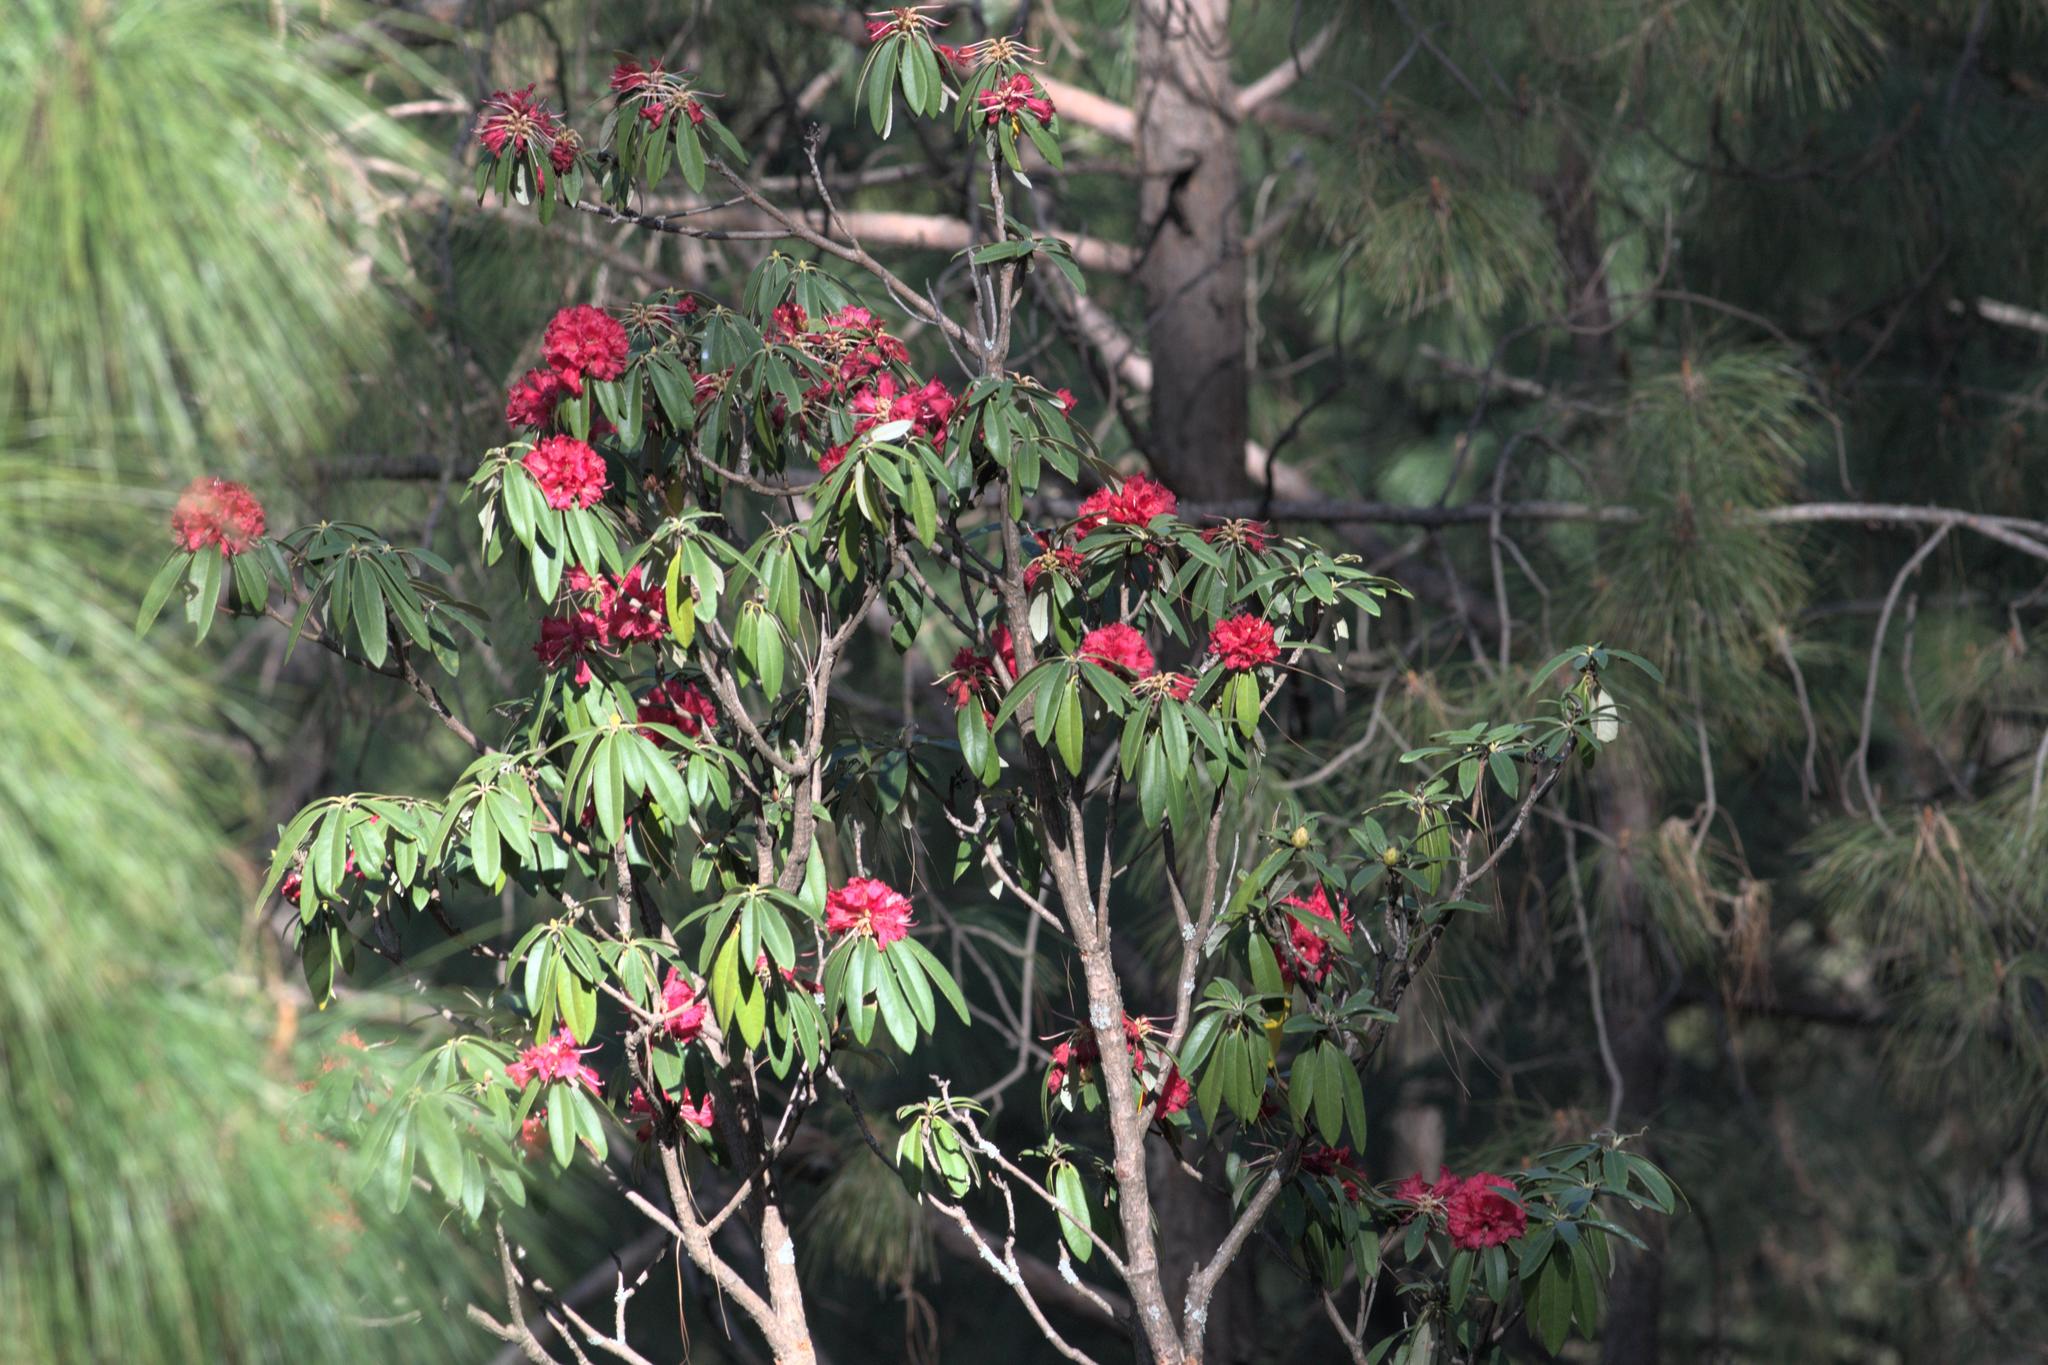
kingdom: Plantae
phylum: Tracheophyta
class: Magnoliopsida
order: Ericales
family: Ericaceae
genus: Rhododendron
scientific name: Rhododendron arboreum
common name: Tree rhododendron
